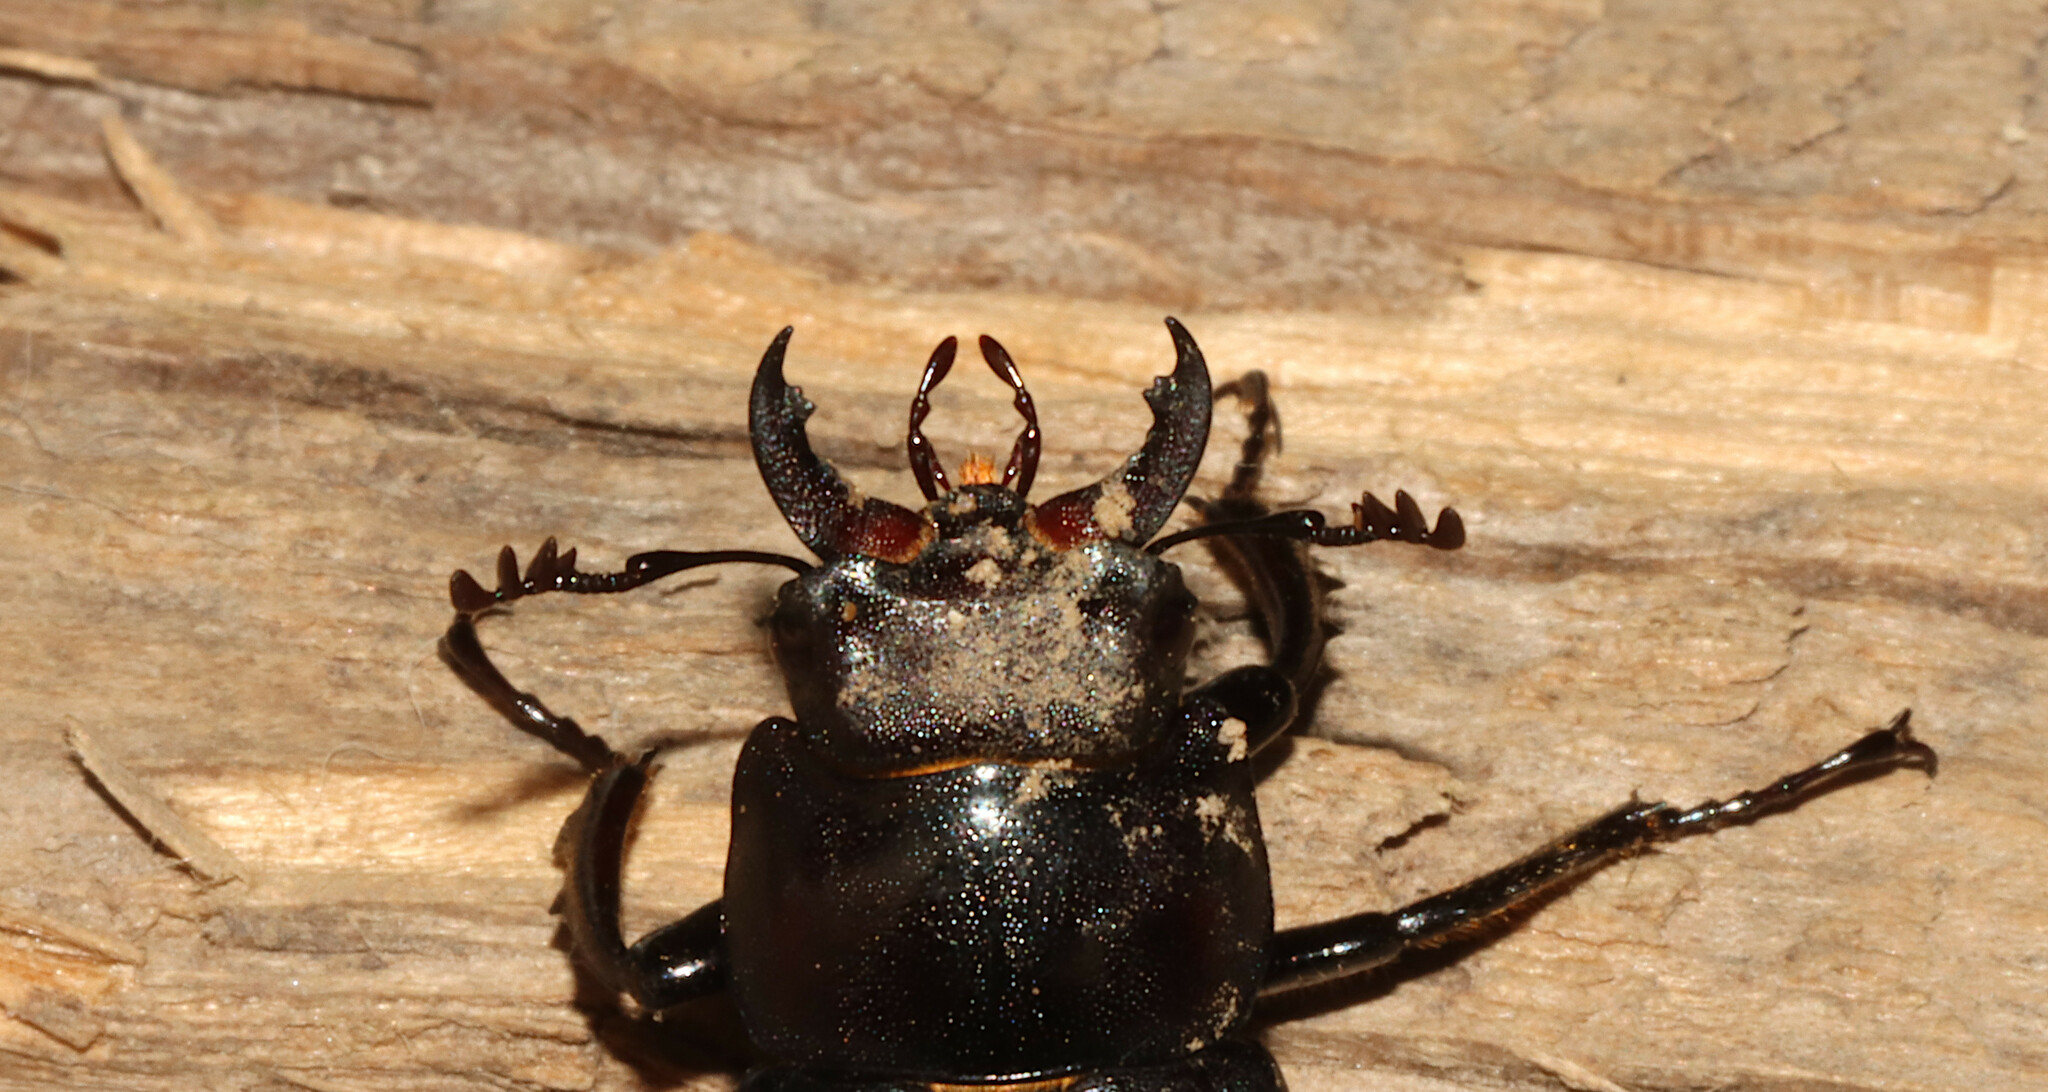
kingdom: Animalia
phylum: Arthropoda
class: Insecta
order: Coleoptera
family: Lucanidae
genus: Lucanus
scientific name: Lucanus placidus
